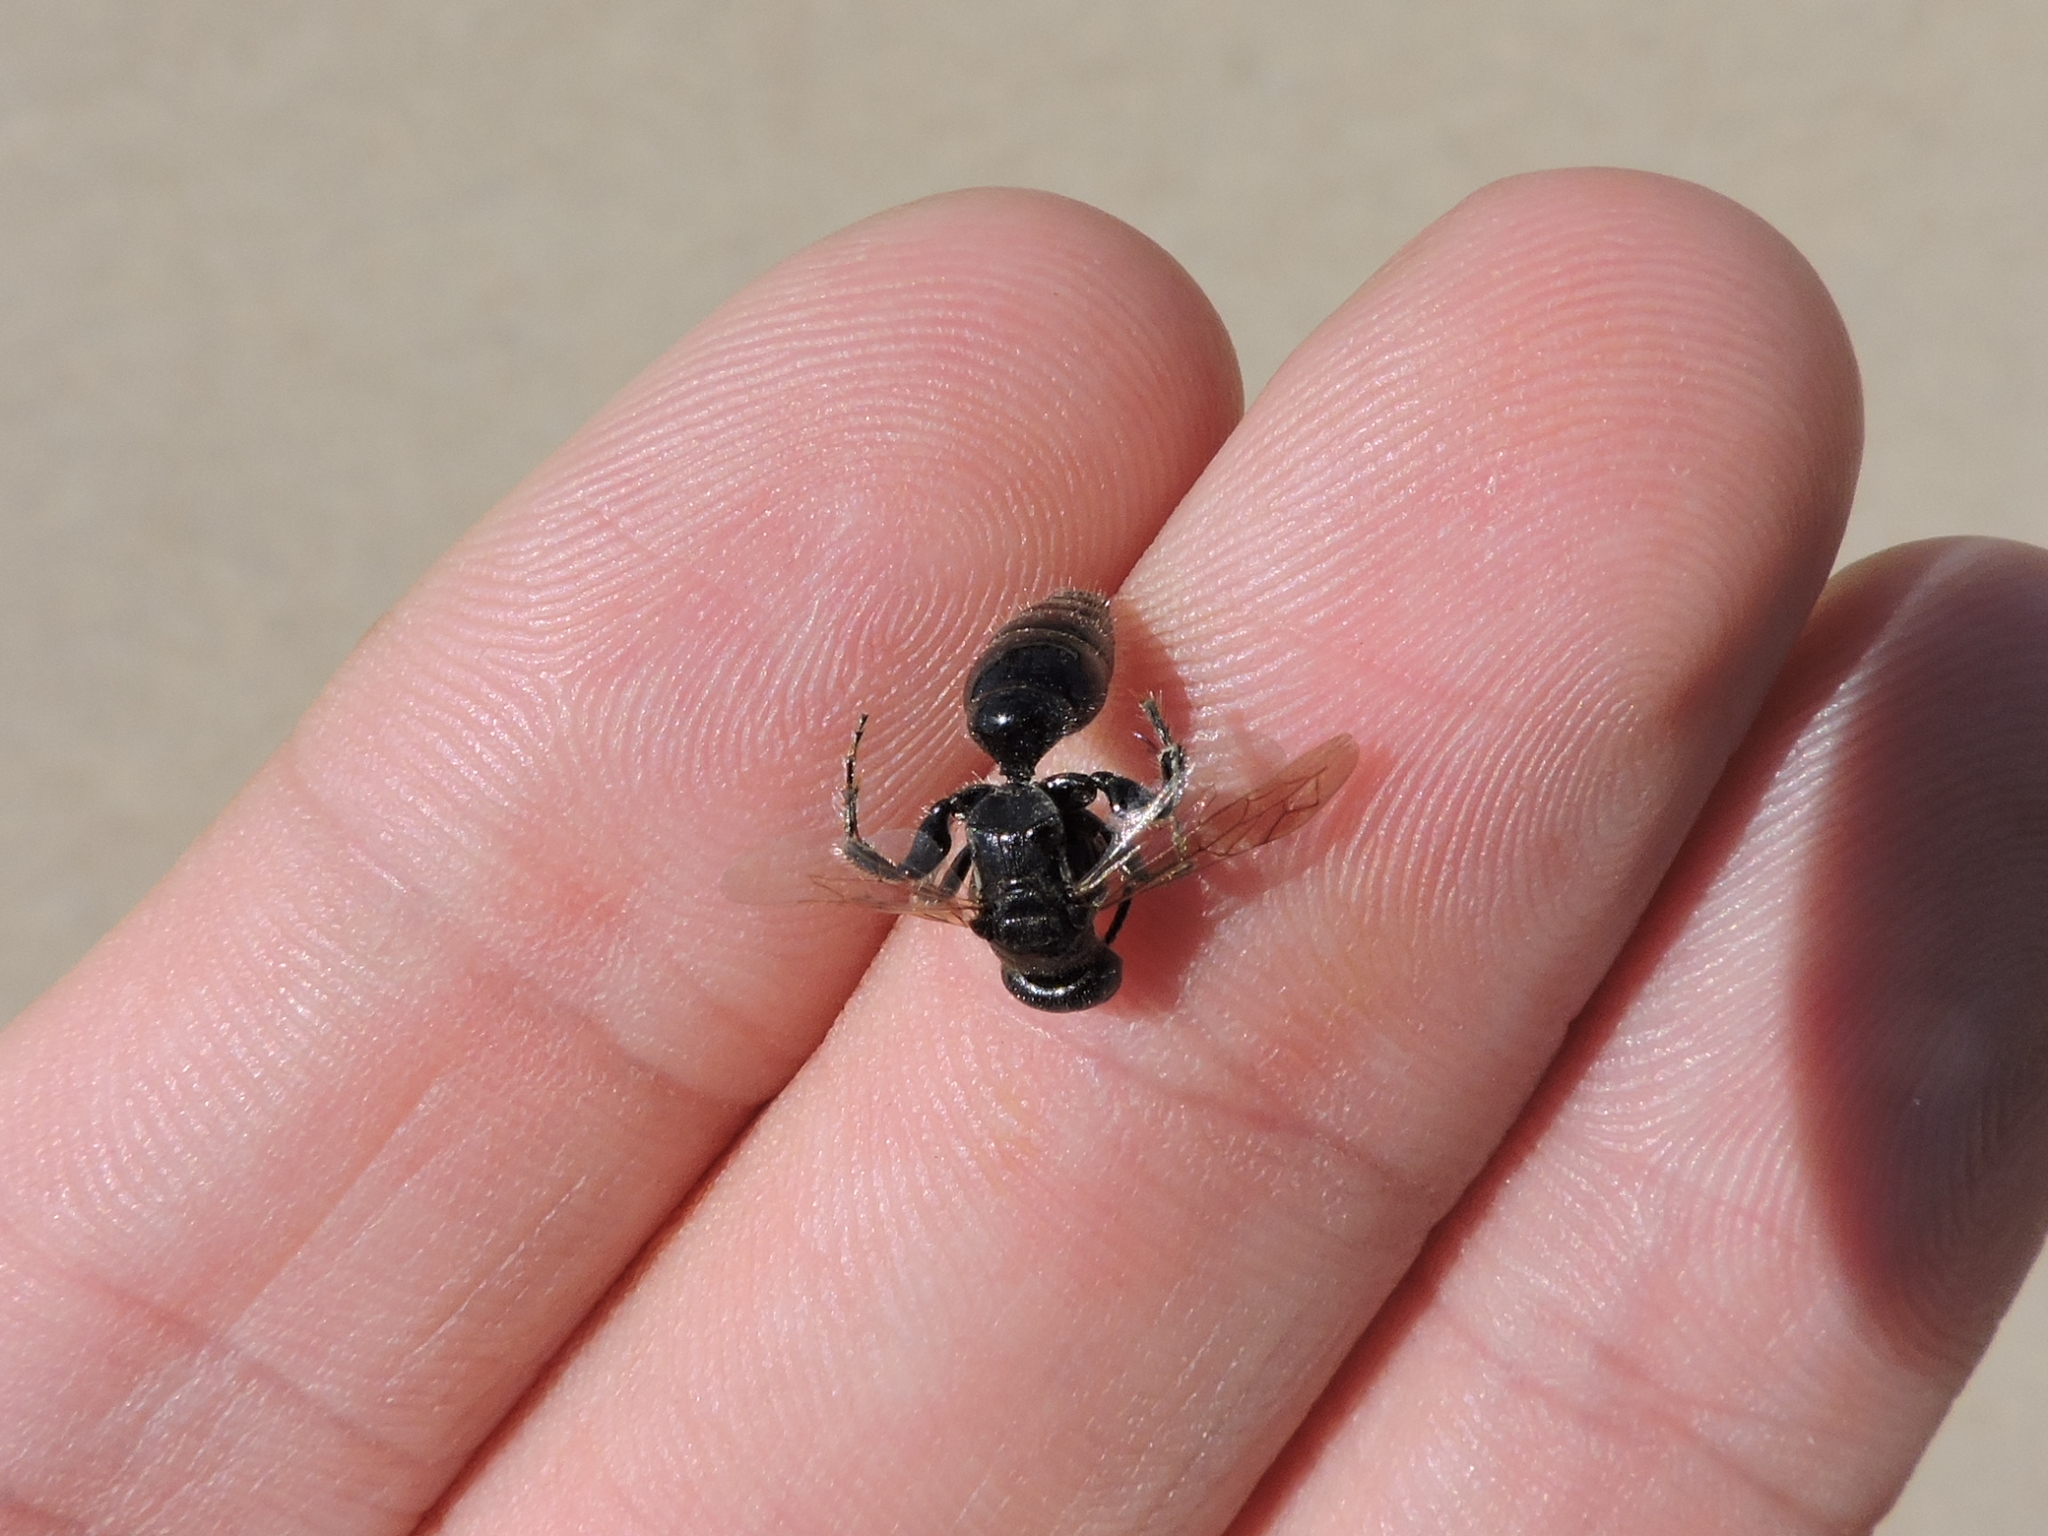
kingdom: Animalia
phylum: Arthropoda
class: Insecta
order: Hymenoptera
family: Tiphiidae
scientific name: Tiphiidae
